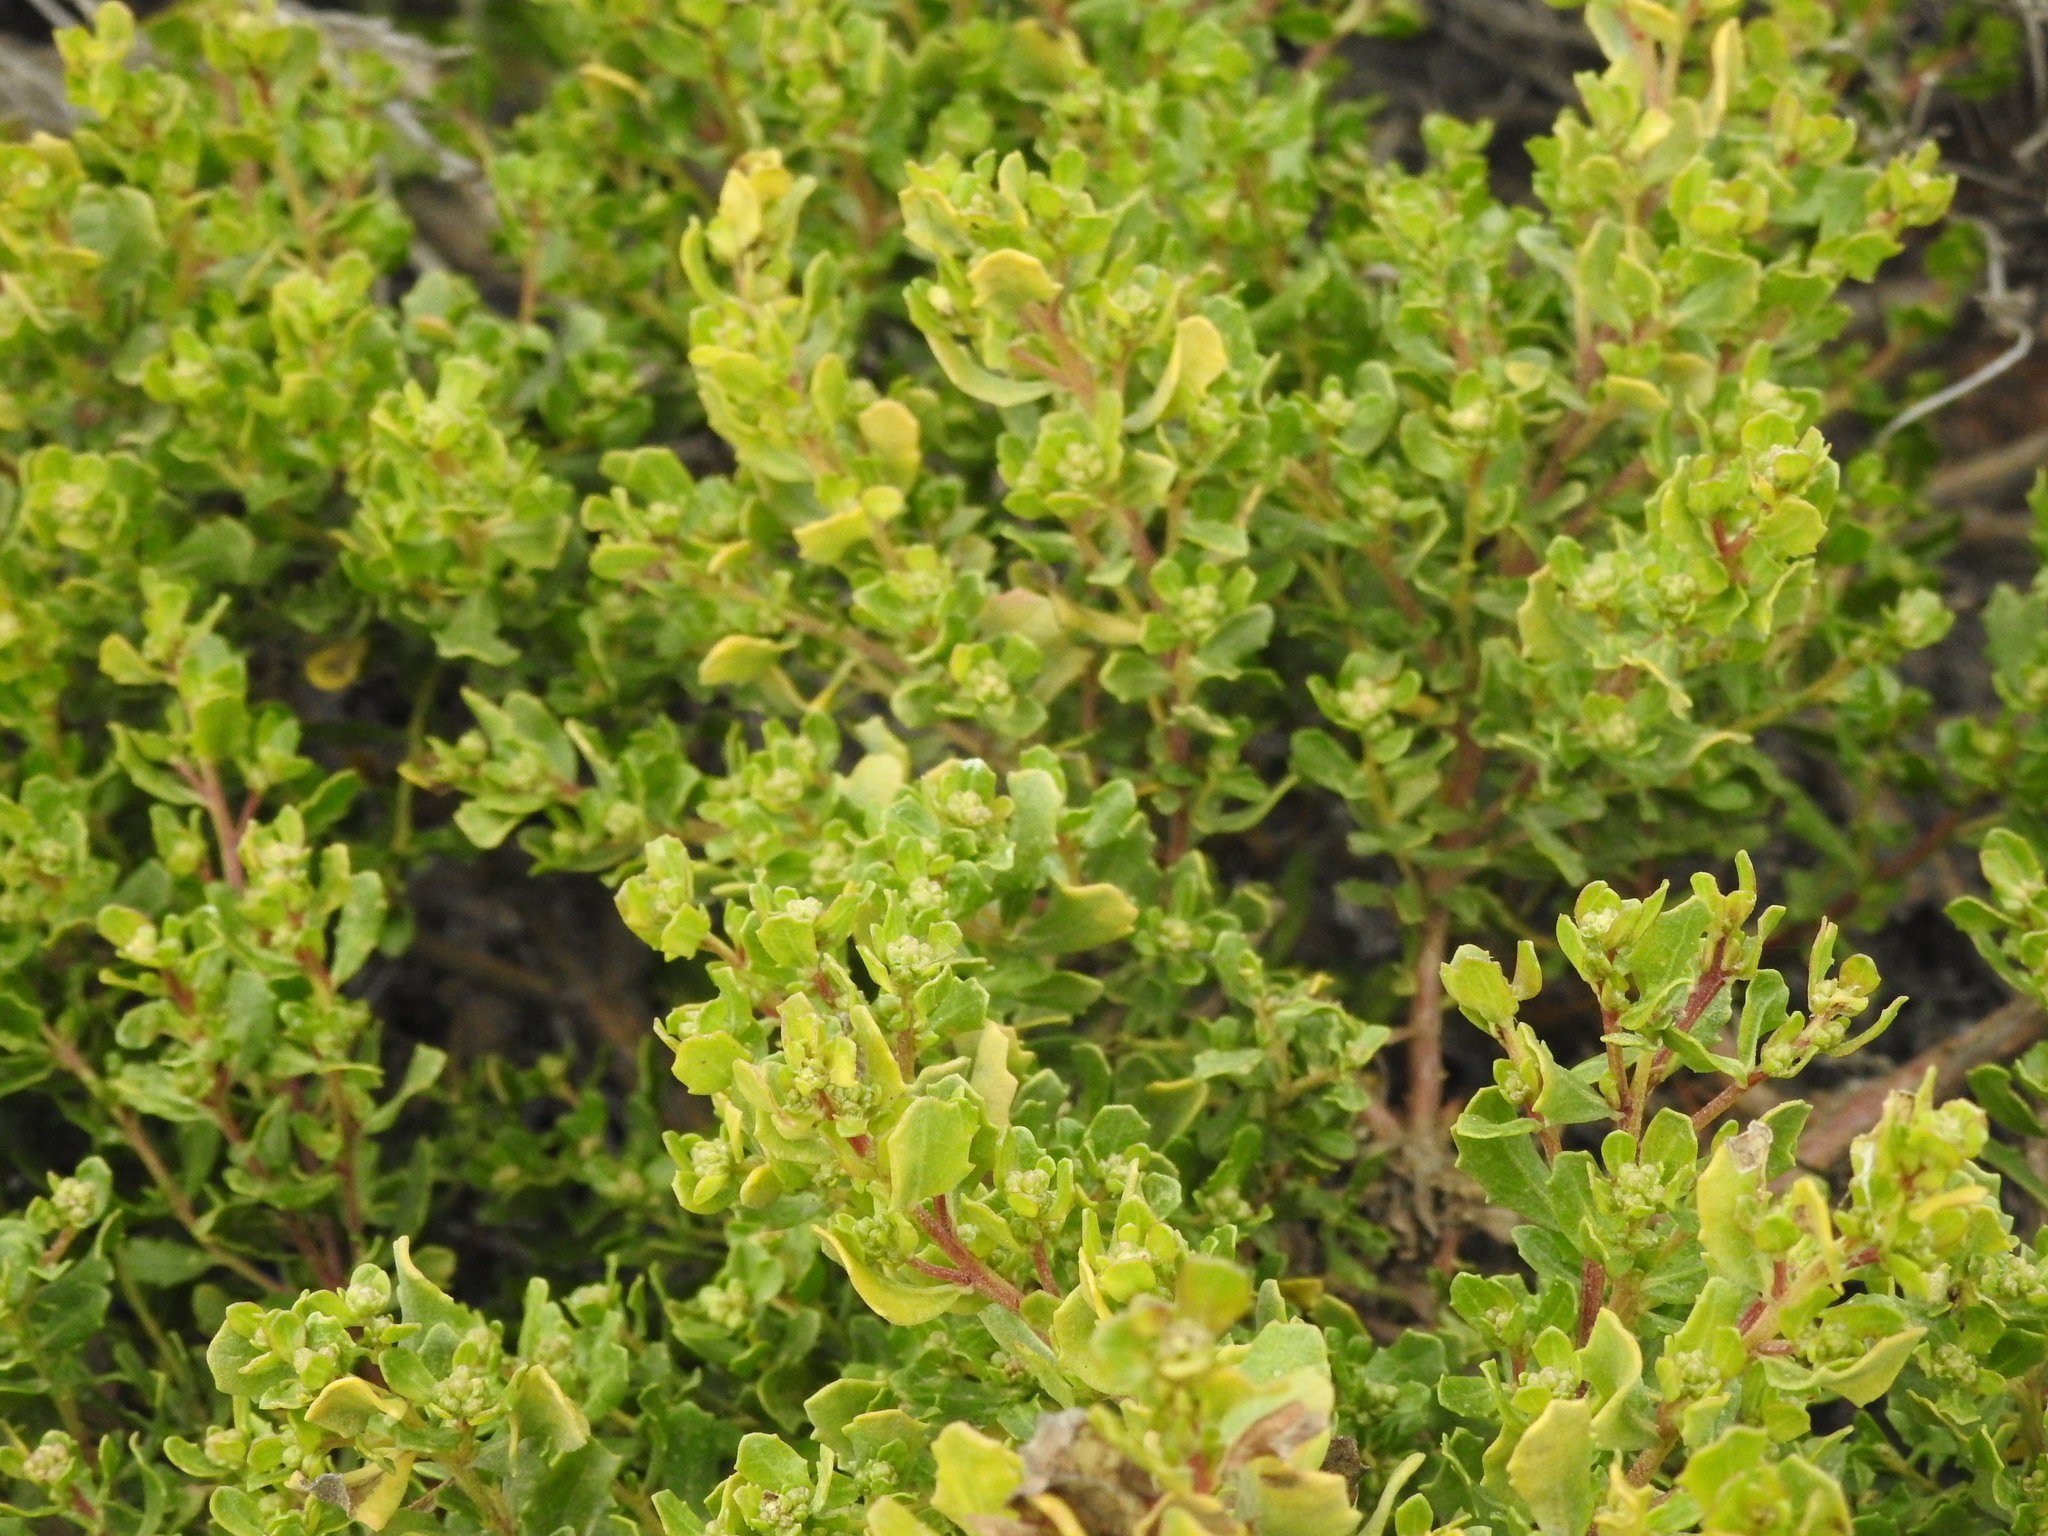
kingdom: Plantae
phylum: Tracheophyta
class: Magnoliopsida
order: Asterales
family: Asteraceae
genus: Baccharis
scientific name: Baccharis pilularis
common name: Coyotebrush
